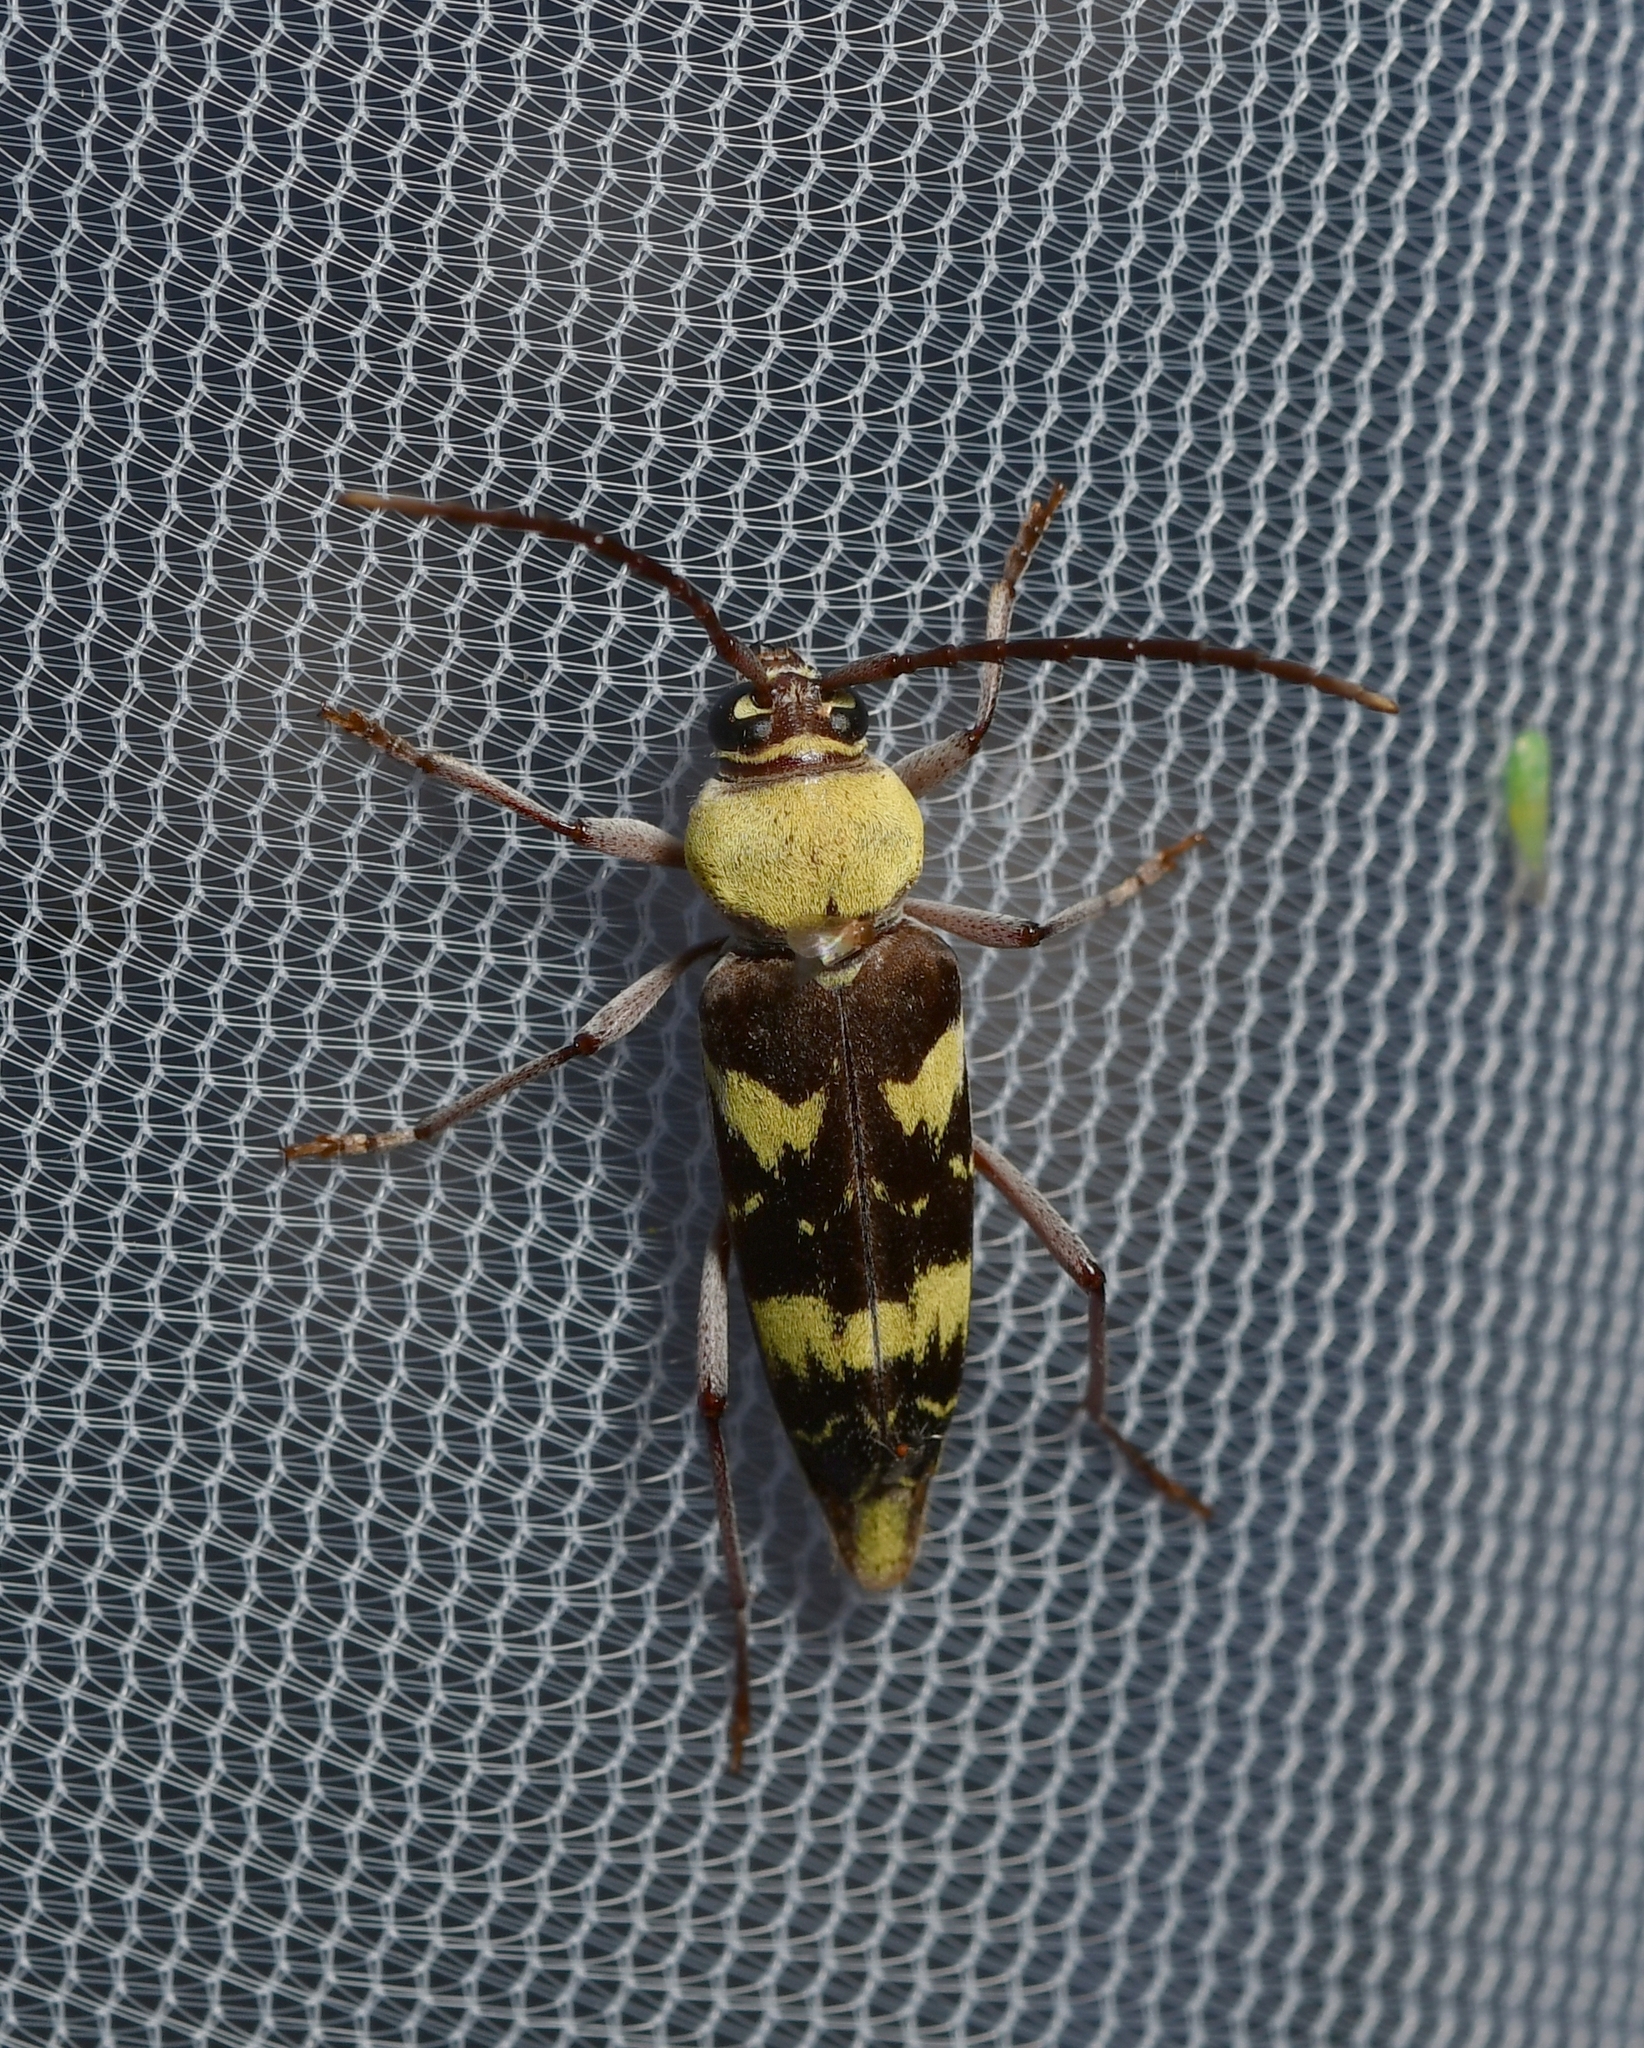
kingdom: Animalia
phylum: Arthropoda
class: Insecta
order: Coleoptera
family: Cerambycidae
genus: Megacyllene
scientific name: Megacyllene antennata
